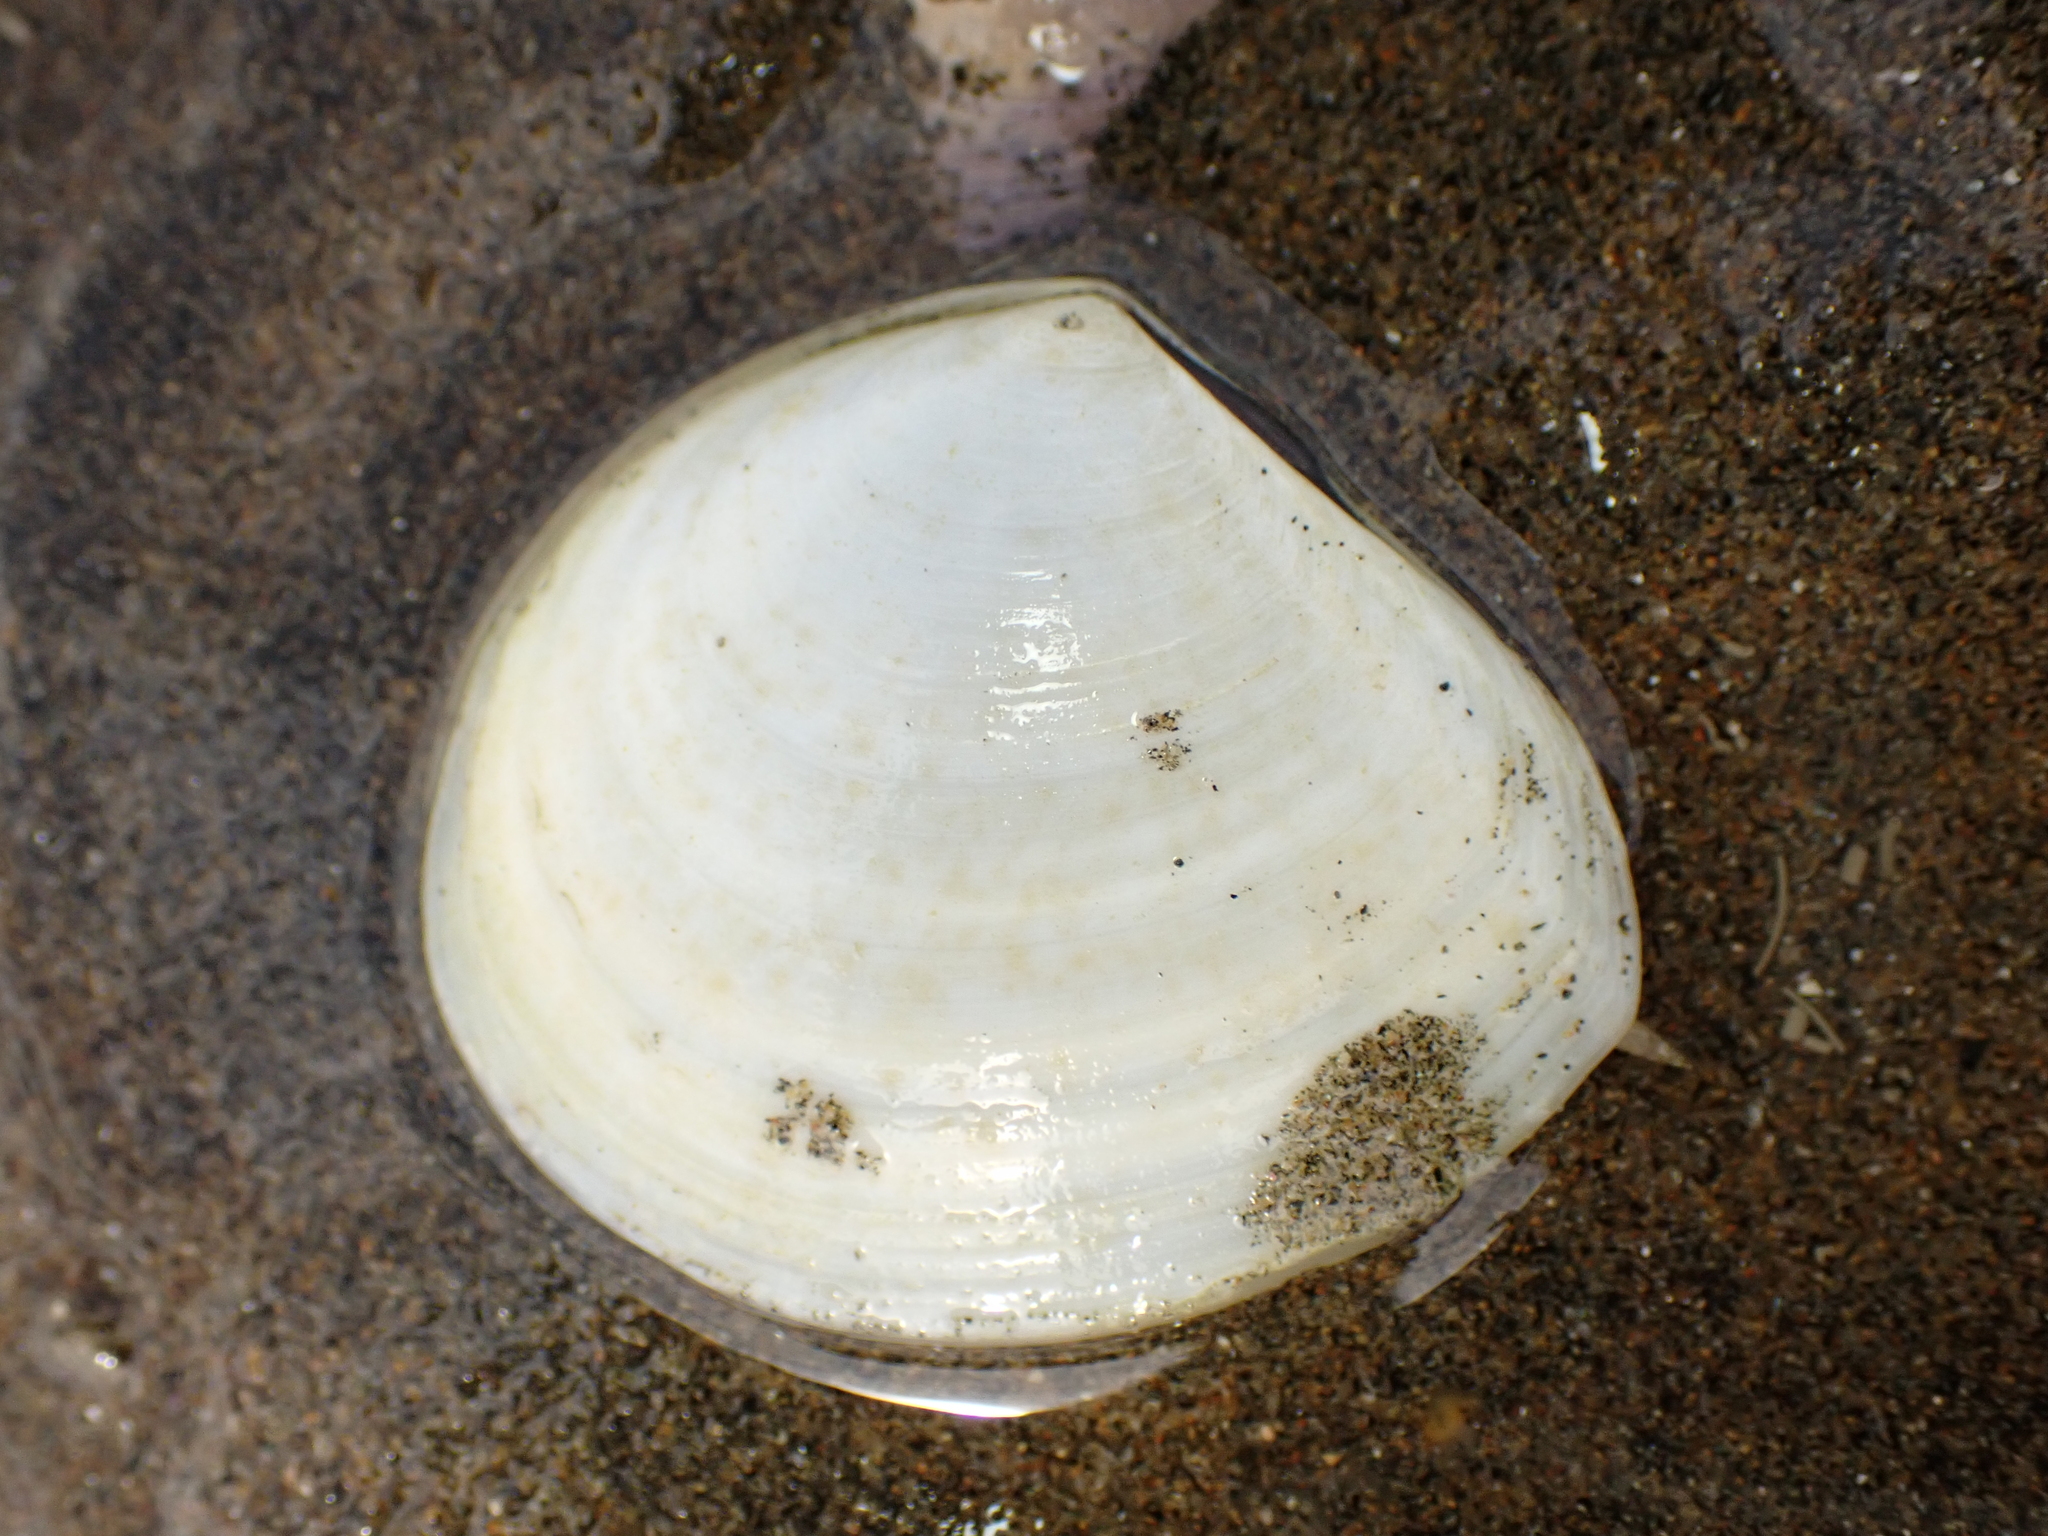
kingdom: Animalia
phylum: Mollusca
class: Bivalvia
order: Cardiida
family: Tellinidae
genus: Macomona
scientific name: Macomona liliana
